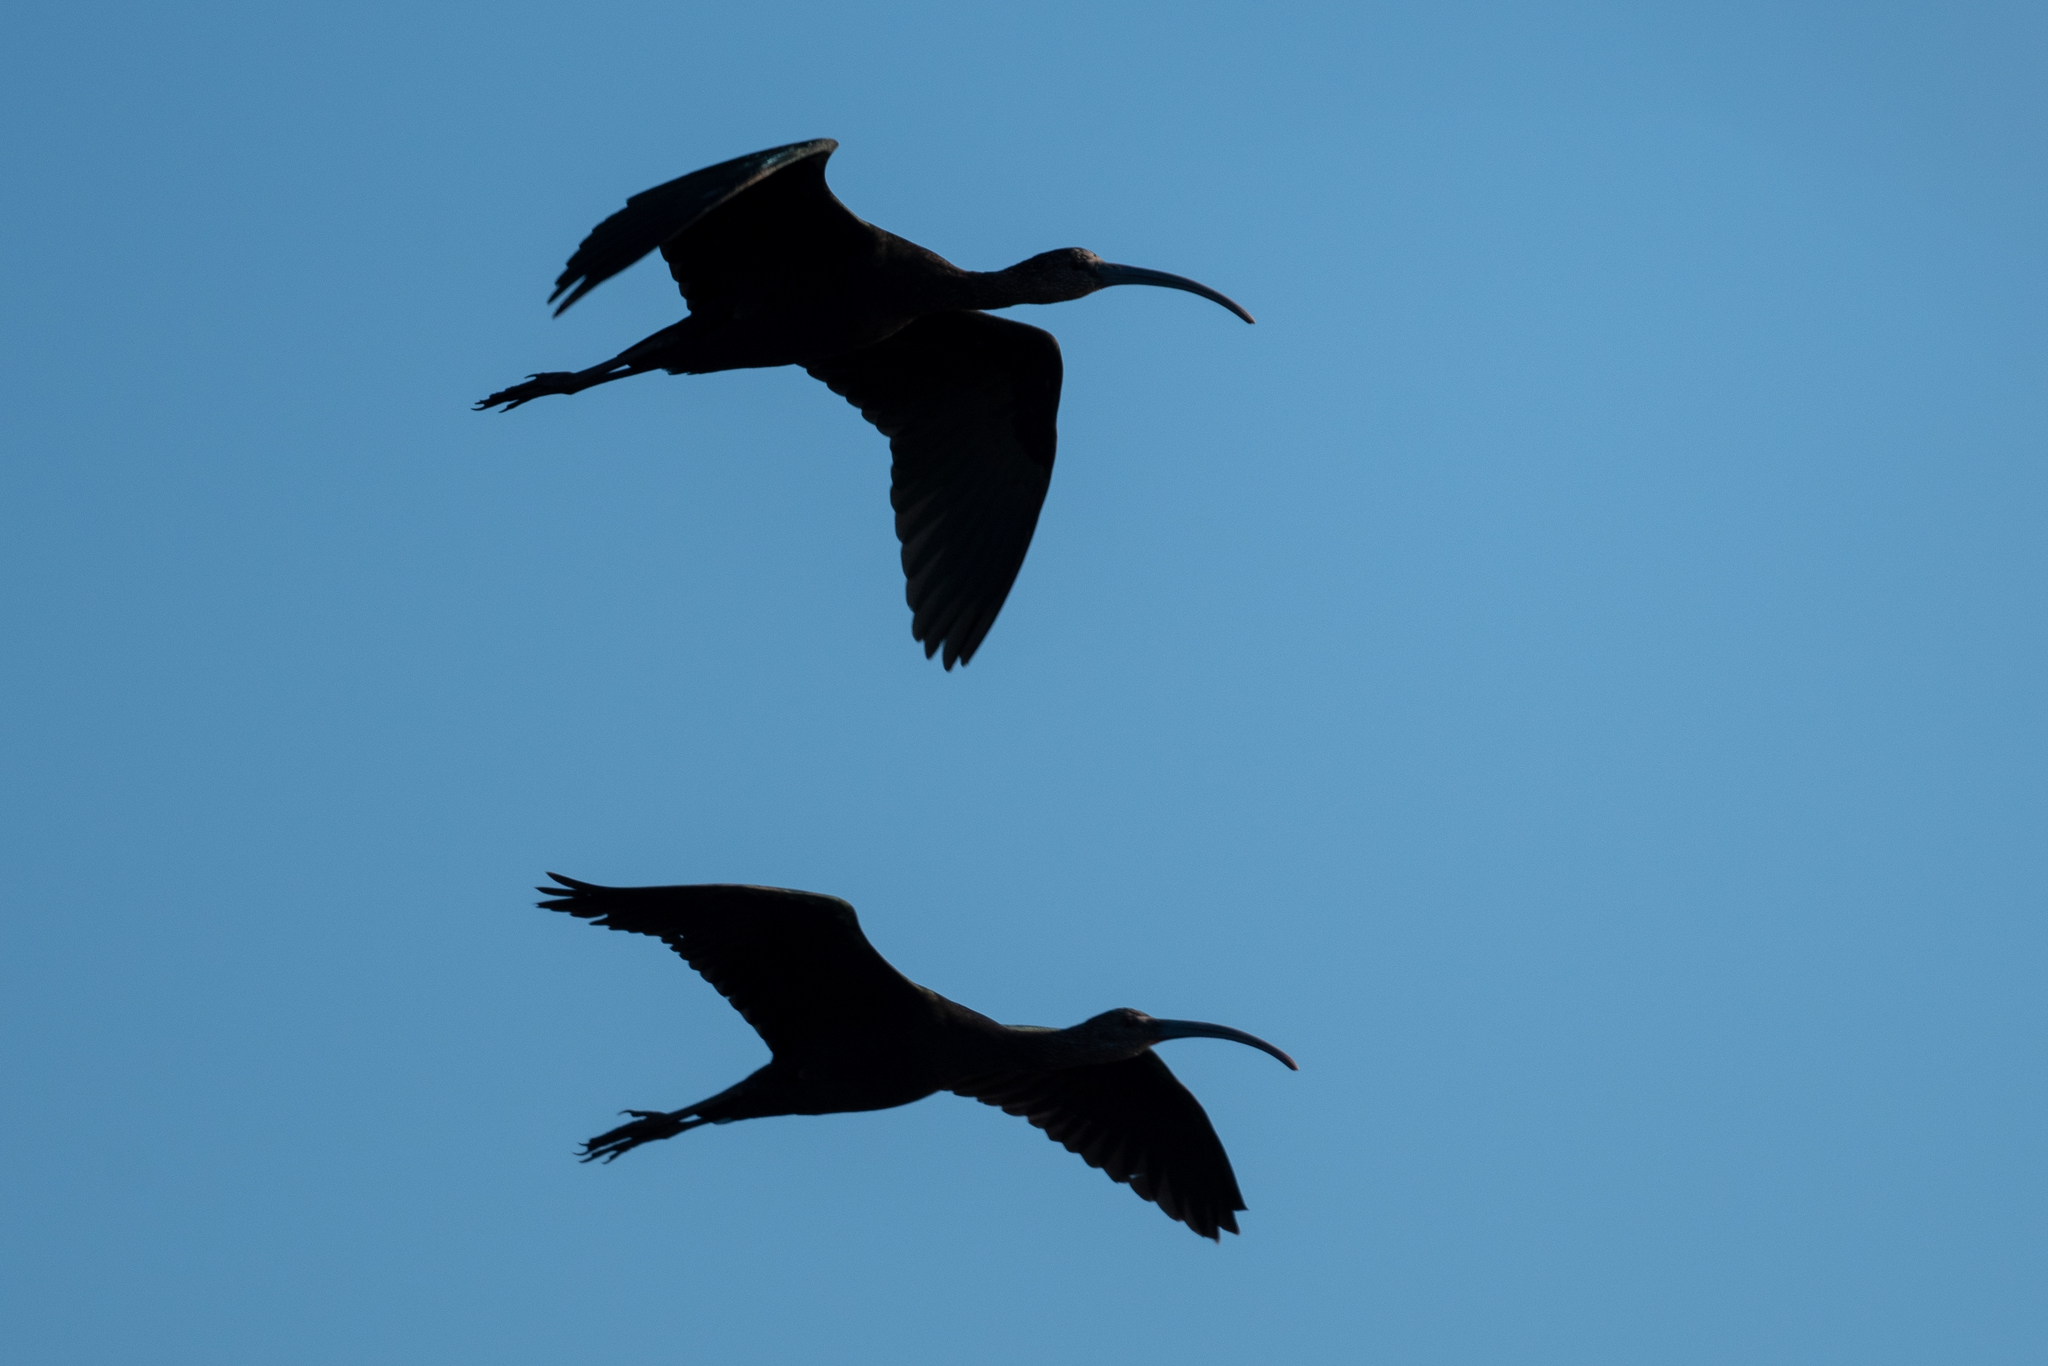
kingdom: Animalia
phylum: Chordata
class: Aves
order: Pelecaniformes
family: Threskiornithidae
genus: Plegadis
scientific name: Plegadis chihi
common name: White-faced ibis
